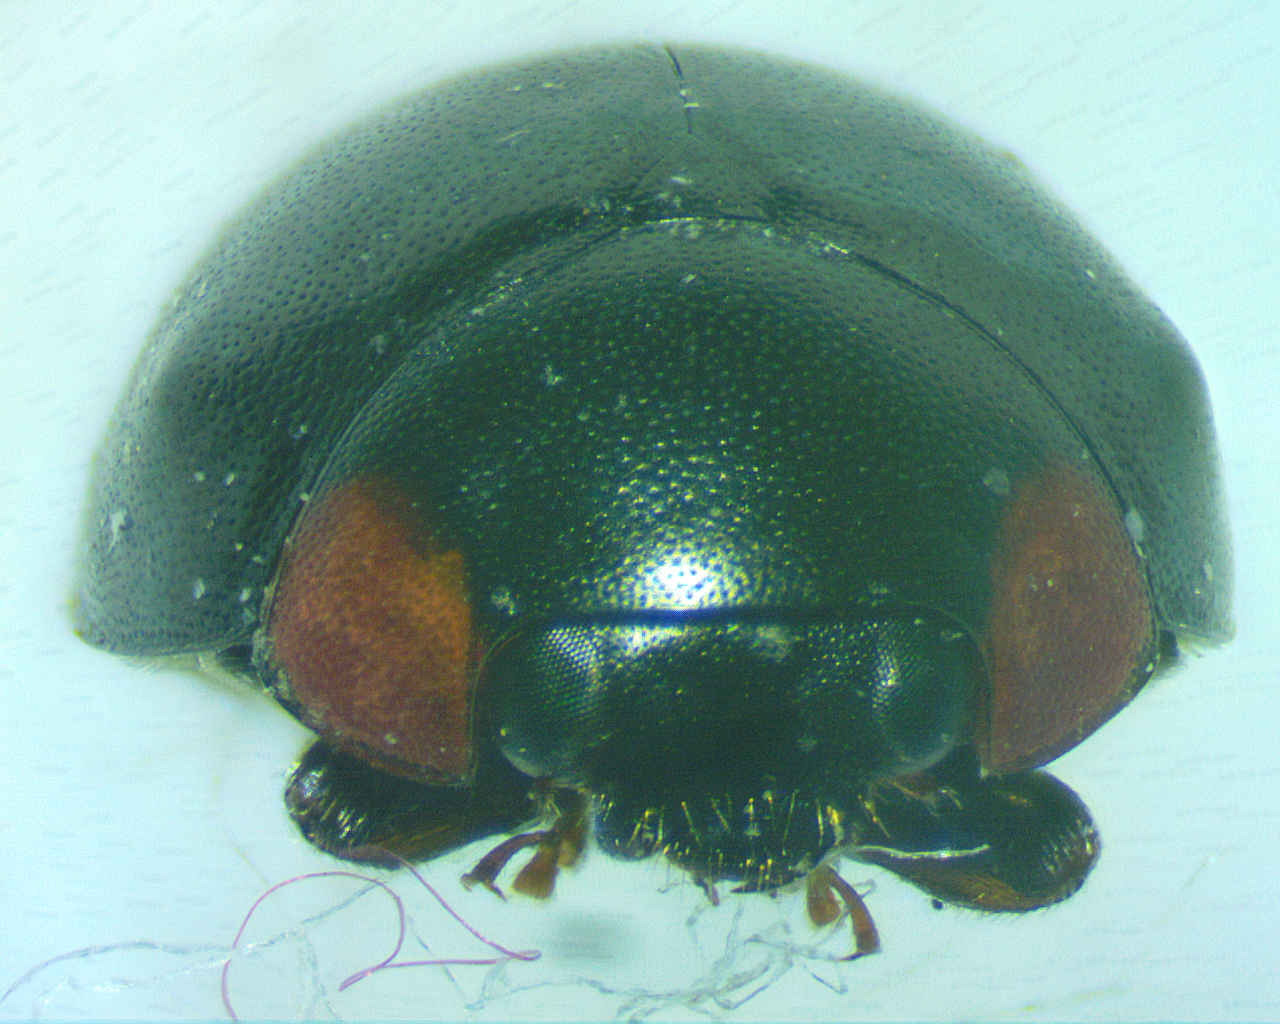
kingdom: Animalia
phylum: Arthropoda
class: Insecta
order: Coleoptera
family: Coccinellidae
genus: Hyperaspis
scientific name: Hyperaspis bigeminata
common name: Bigeminate sigil lady beetle
